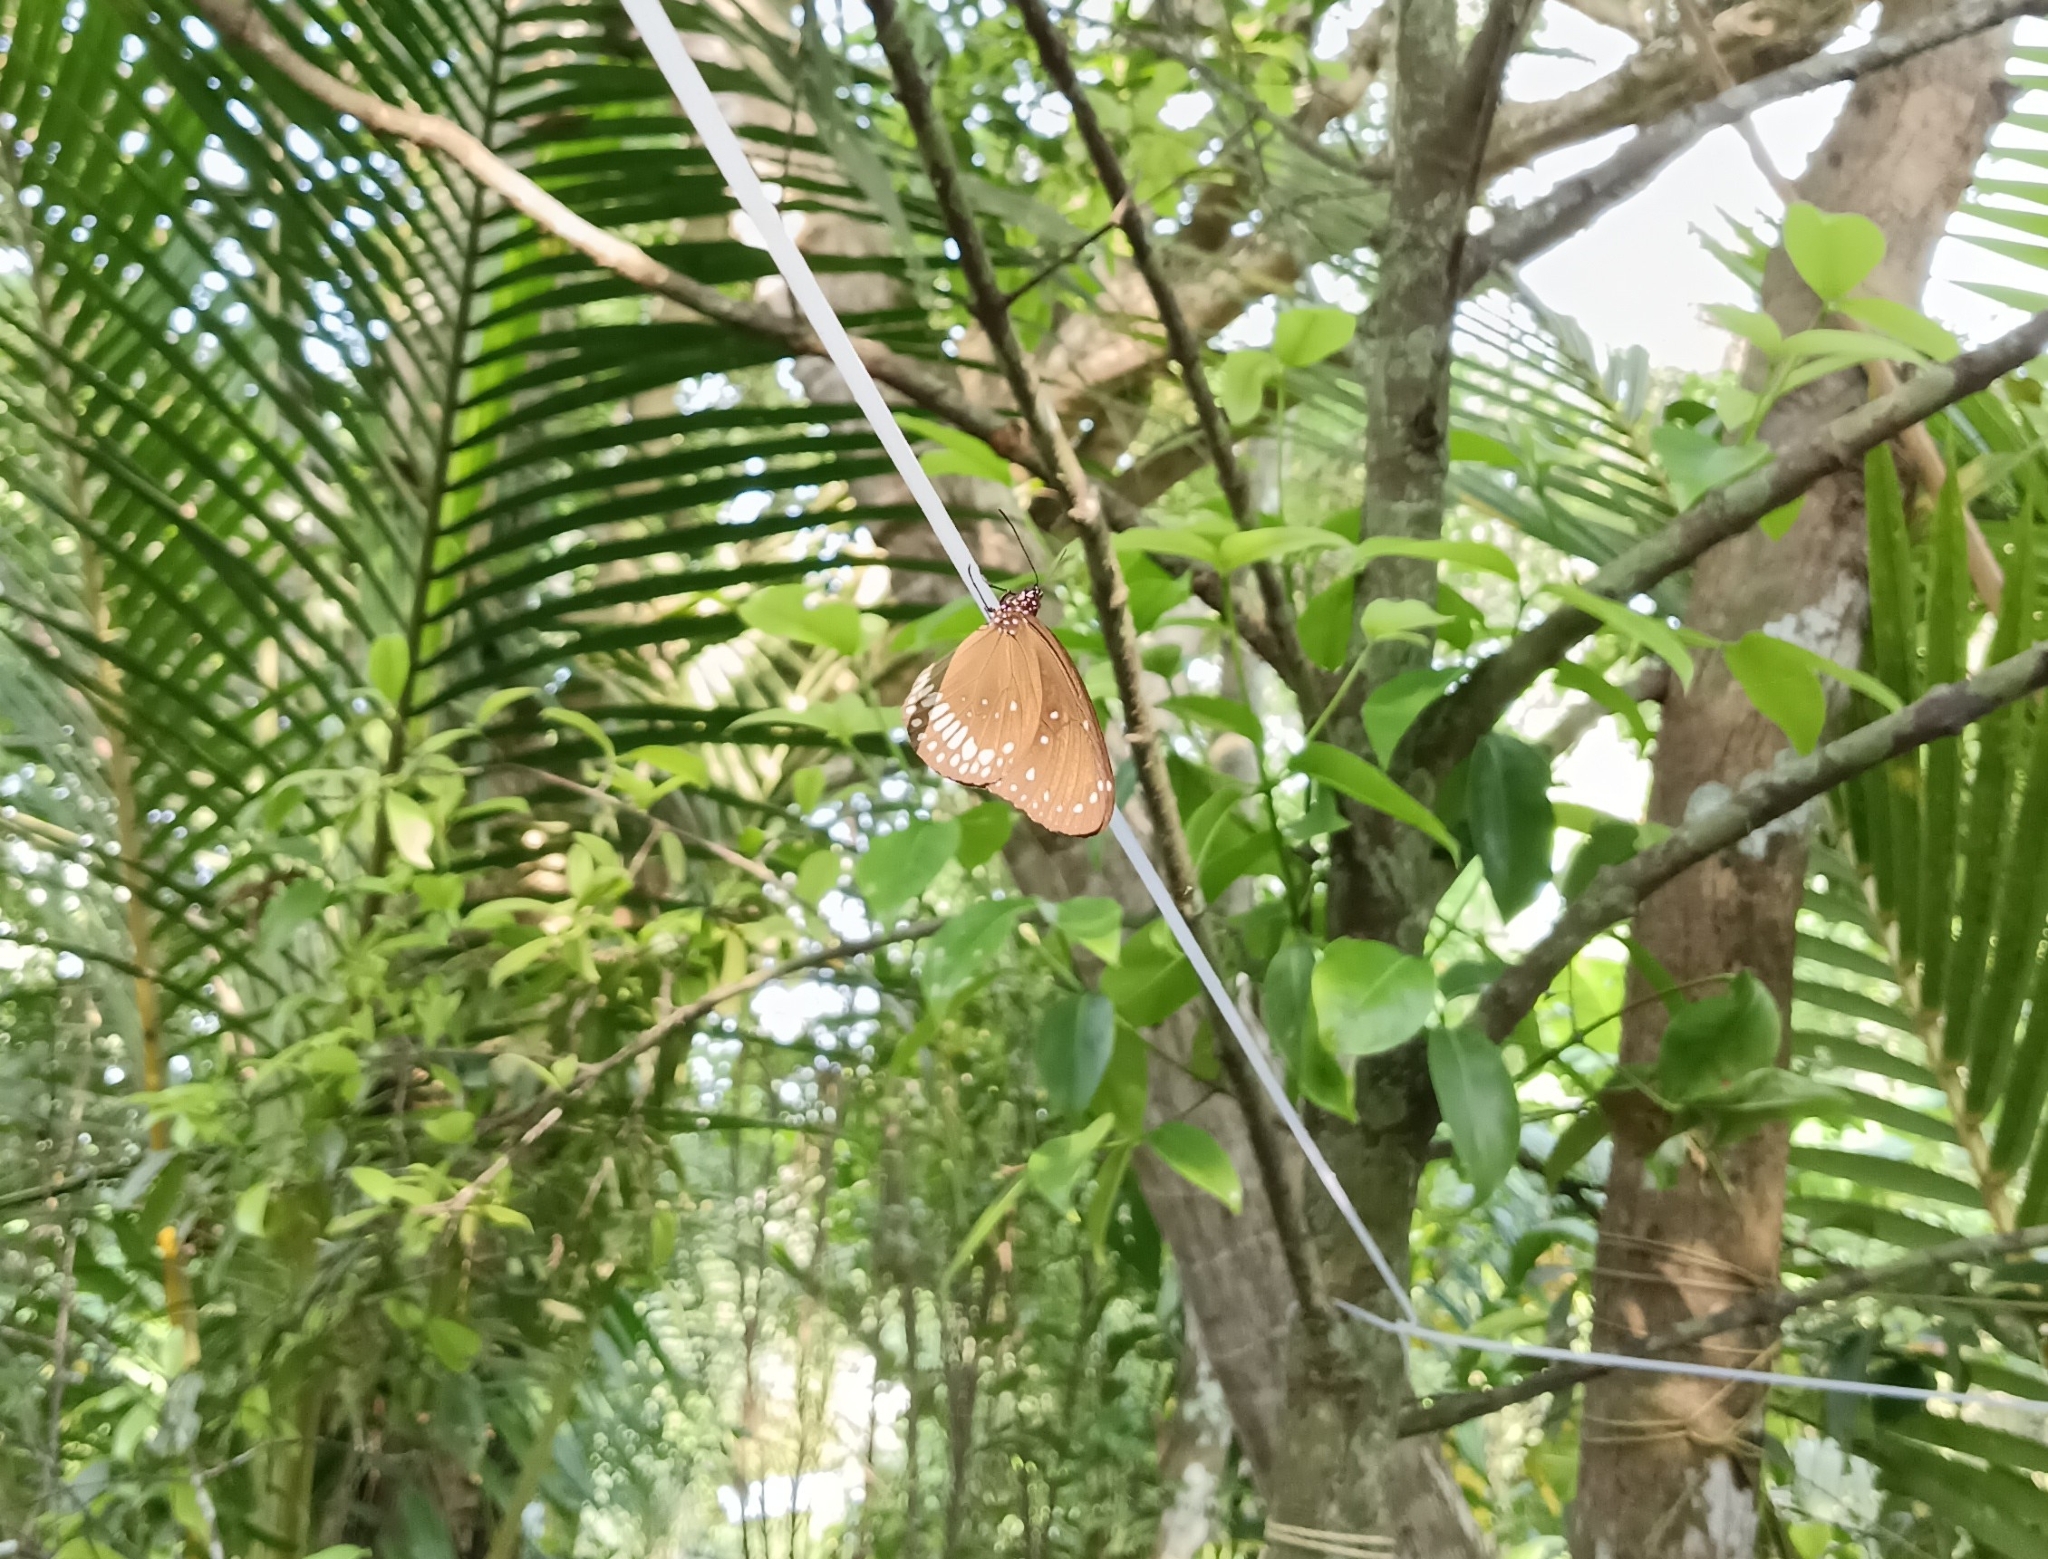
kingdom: Animalia
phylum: Arthropoda
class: Insecta
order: Lepidoptera
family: Nymphalidae
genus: Euploea
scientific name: Euploea core
